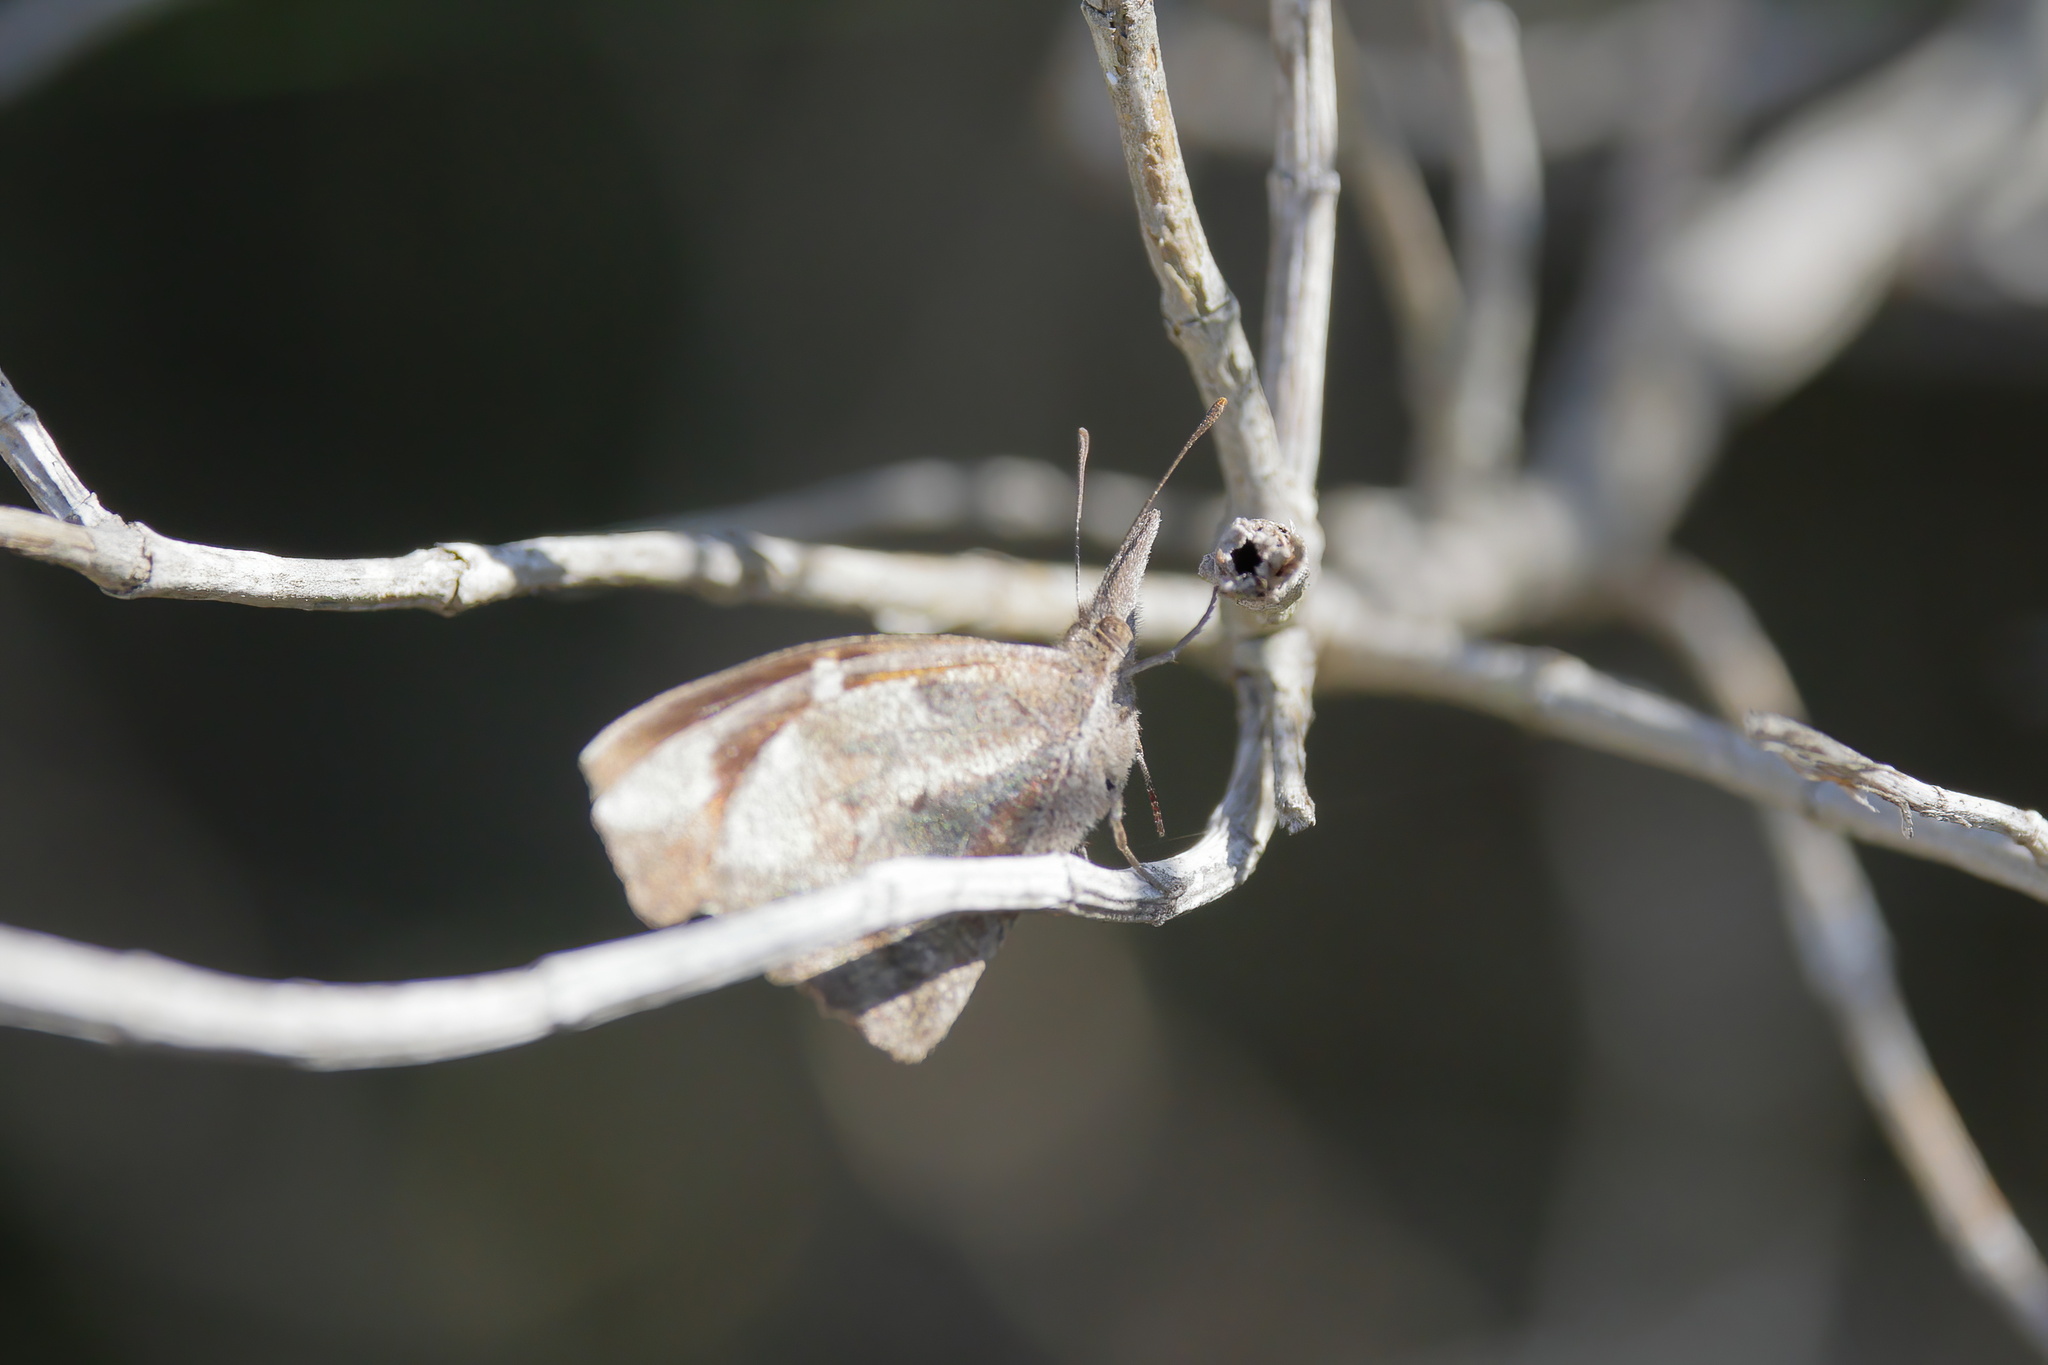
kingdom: Animalia
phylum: Arthropoda
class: Insecta
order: Lepidoptera
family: Nymphalidae
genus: Libytheana
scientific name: Libytheana carinenta
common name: American snout
